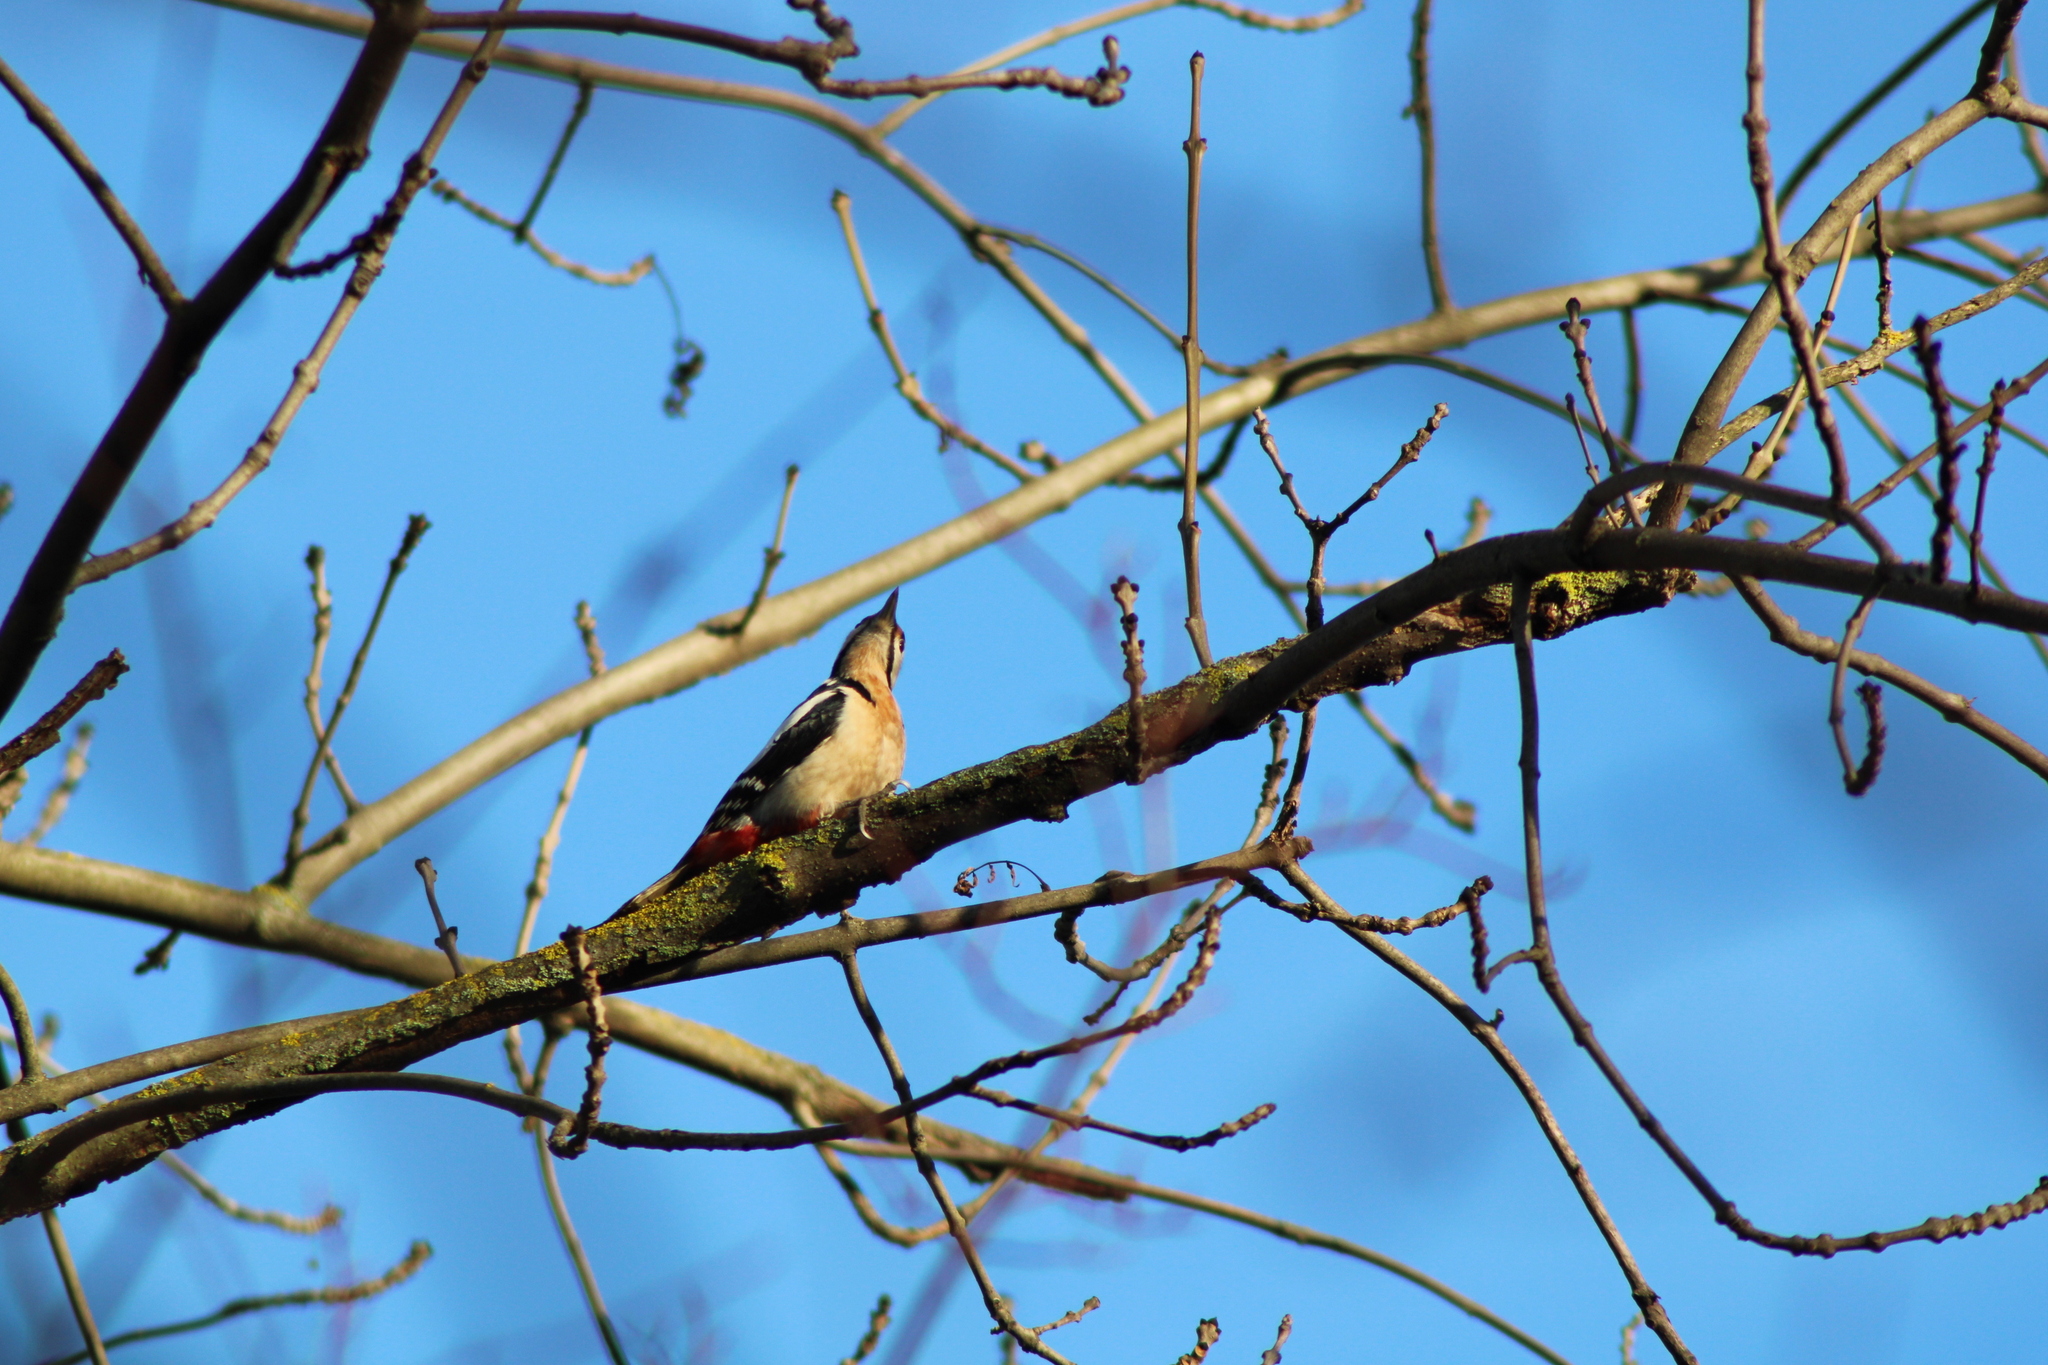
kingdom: Animalia
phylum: Chordata
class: Aves
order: Piciformes
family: Picidae
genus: Dendrocopos
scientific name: Dendrocopos major
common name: Great spotted woodpecker
